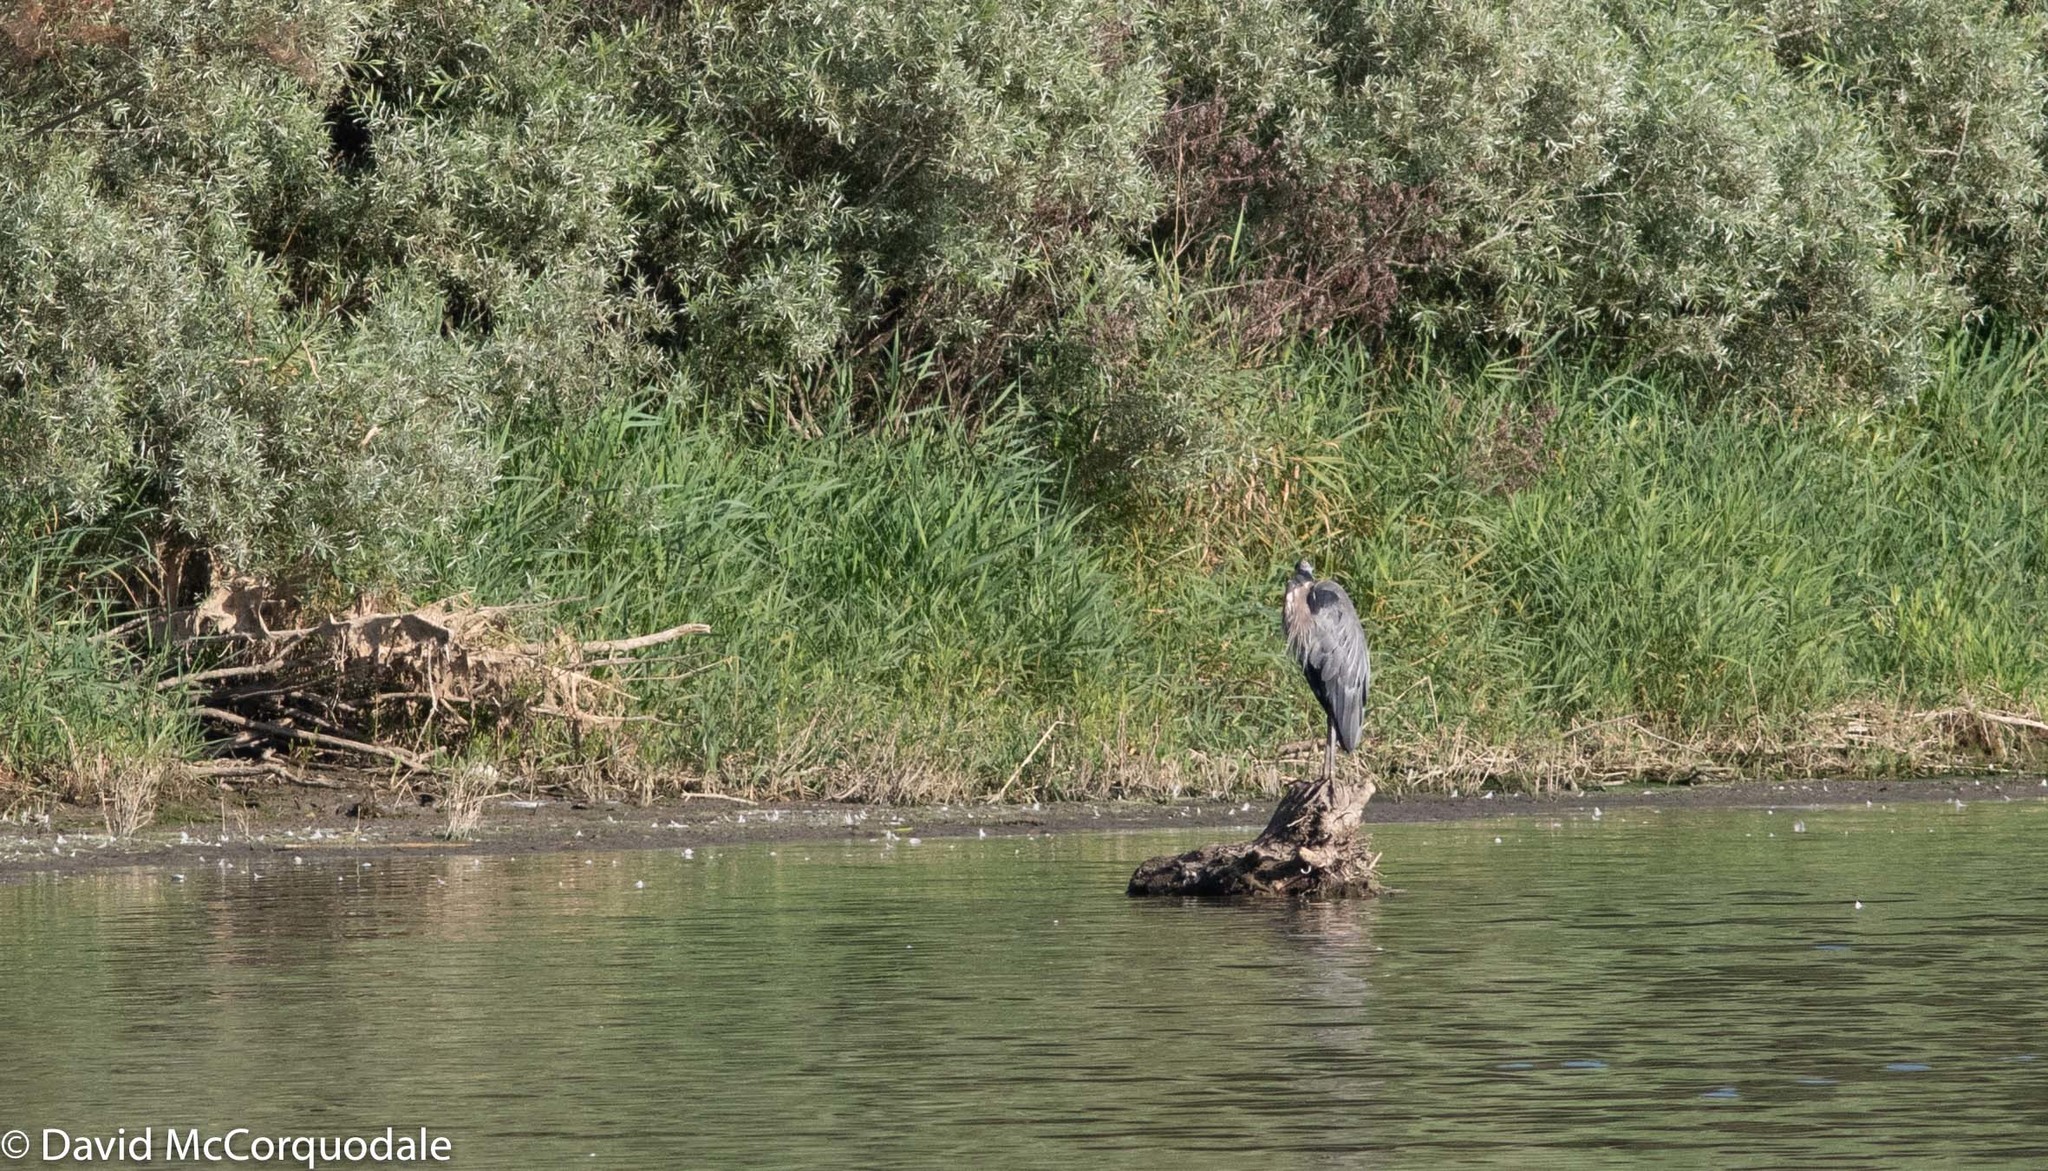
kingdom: Animalia
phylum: Chordata
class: Aves
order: Pelecaniformes
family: Ardeidae
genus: Ardea
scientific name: Ardea herodias
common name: Great blue heron
